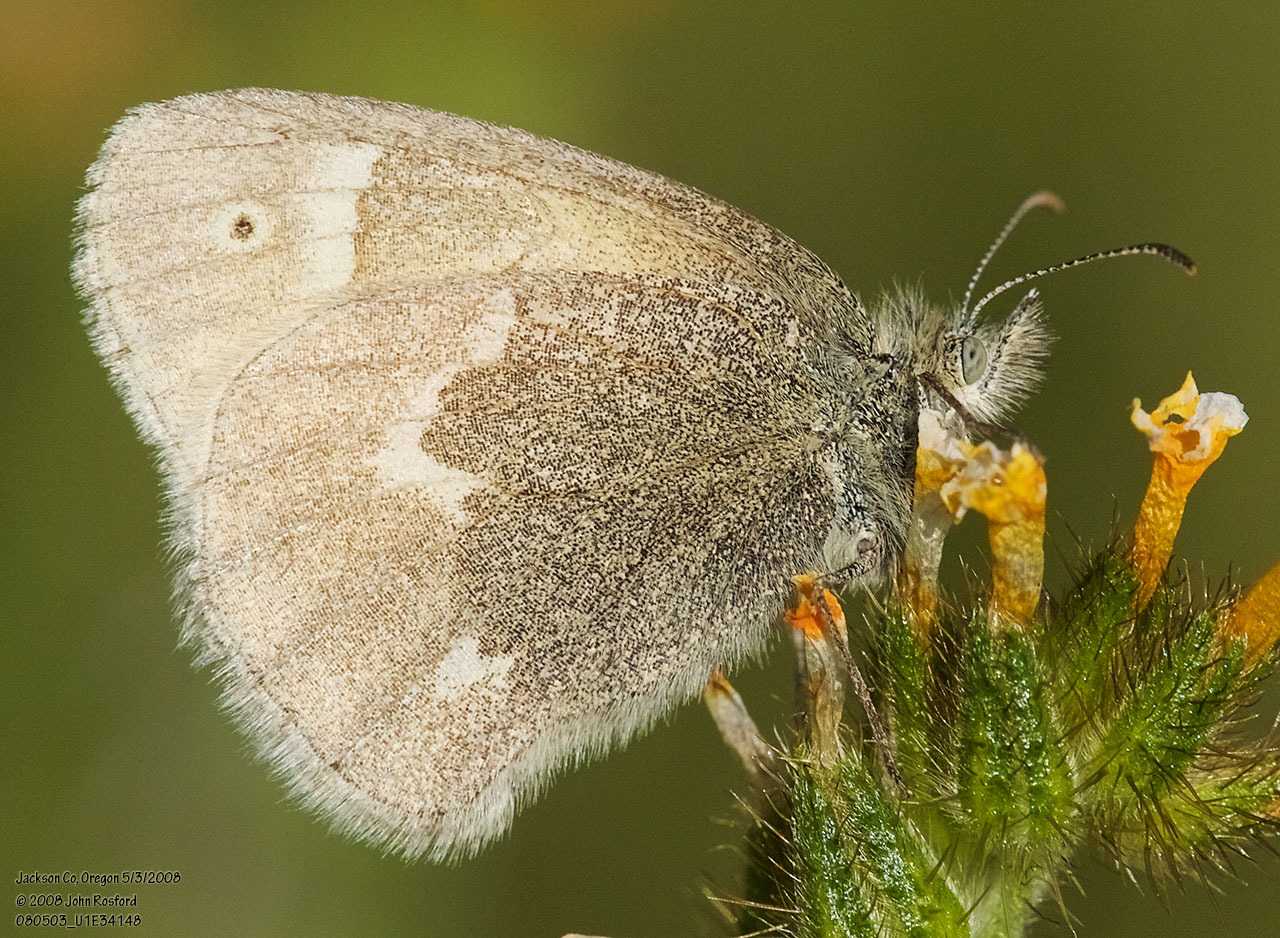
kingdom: Animalia
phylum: Arthropoda
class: Insecta
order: Lepidoptera
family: Nymphalidae
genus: Coenonympha
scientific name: Coenonympha california
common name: Common ringlet
